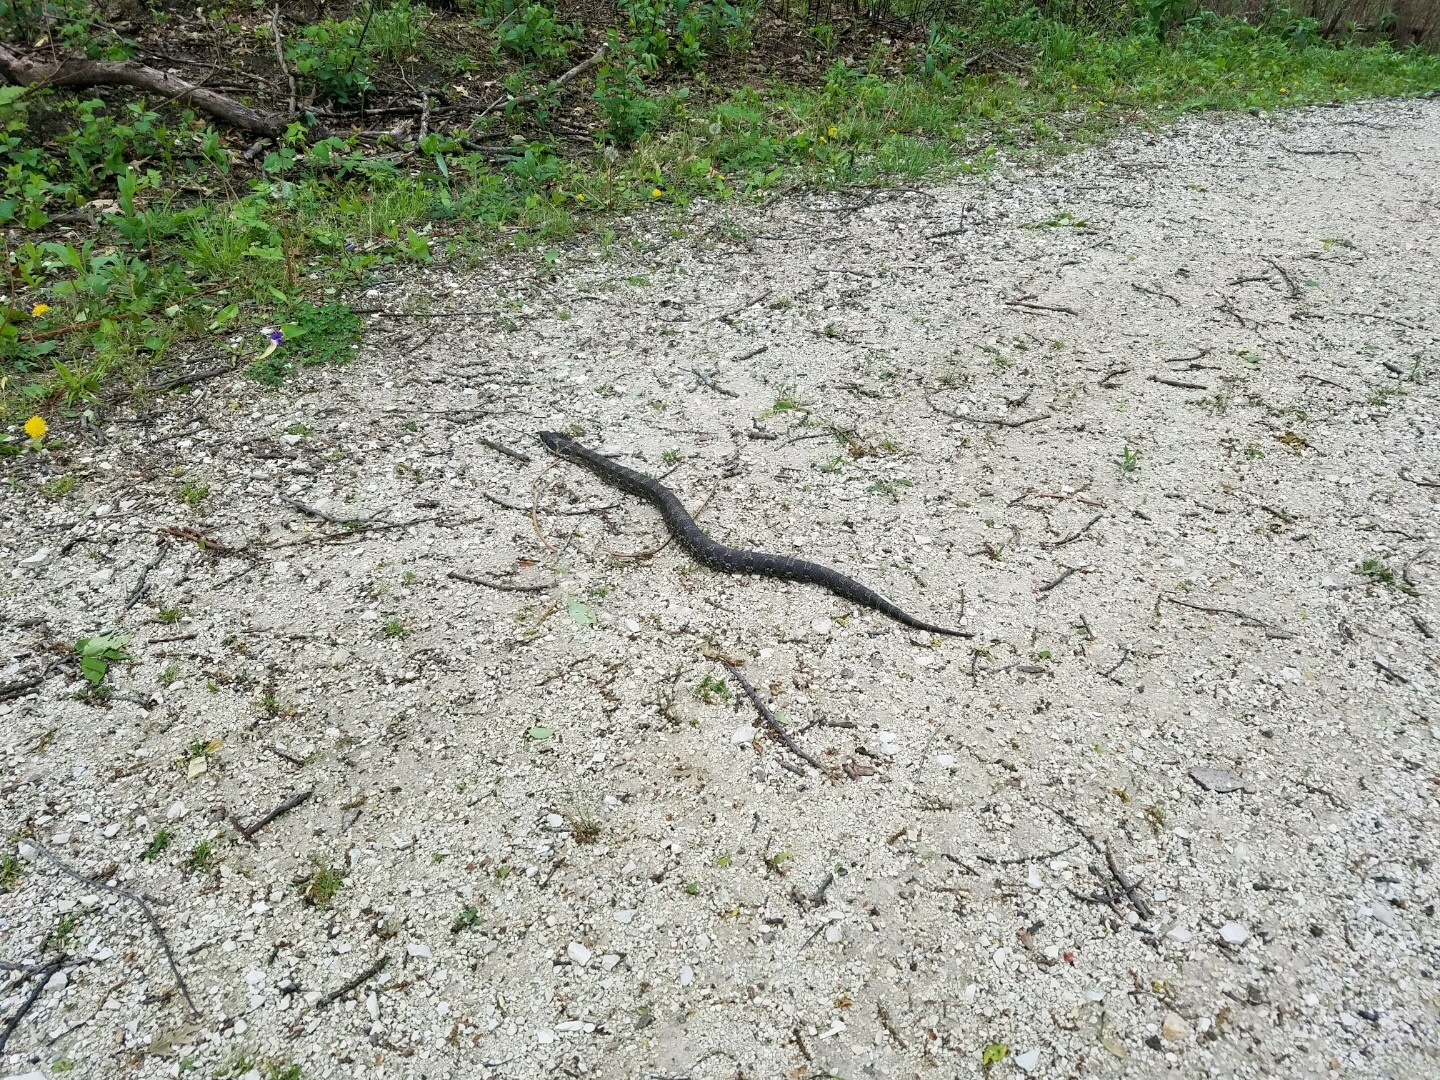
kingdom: Animalia
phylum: Chordata
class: Squamata
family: Colubridae
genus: Heterodon
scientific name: Heterodon platirhinos
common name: Eastern hognose snake
